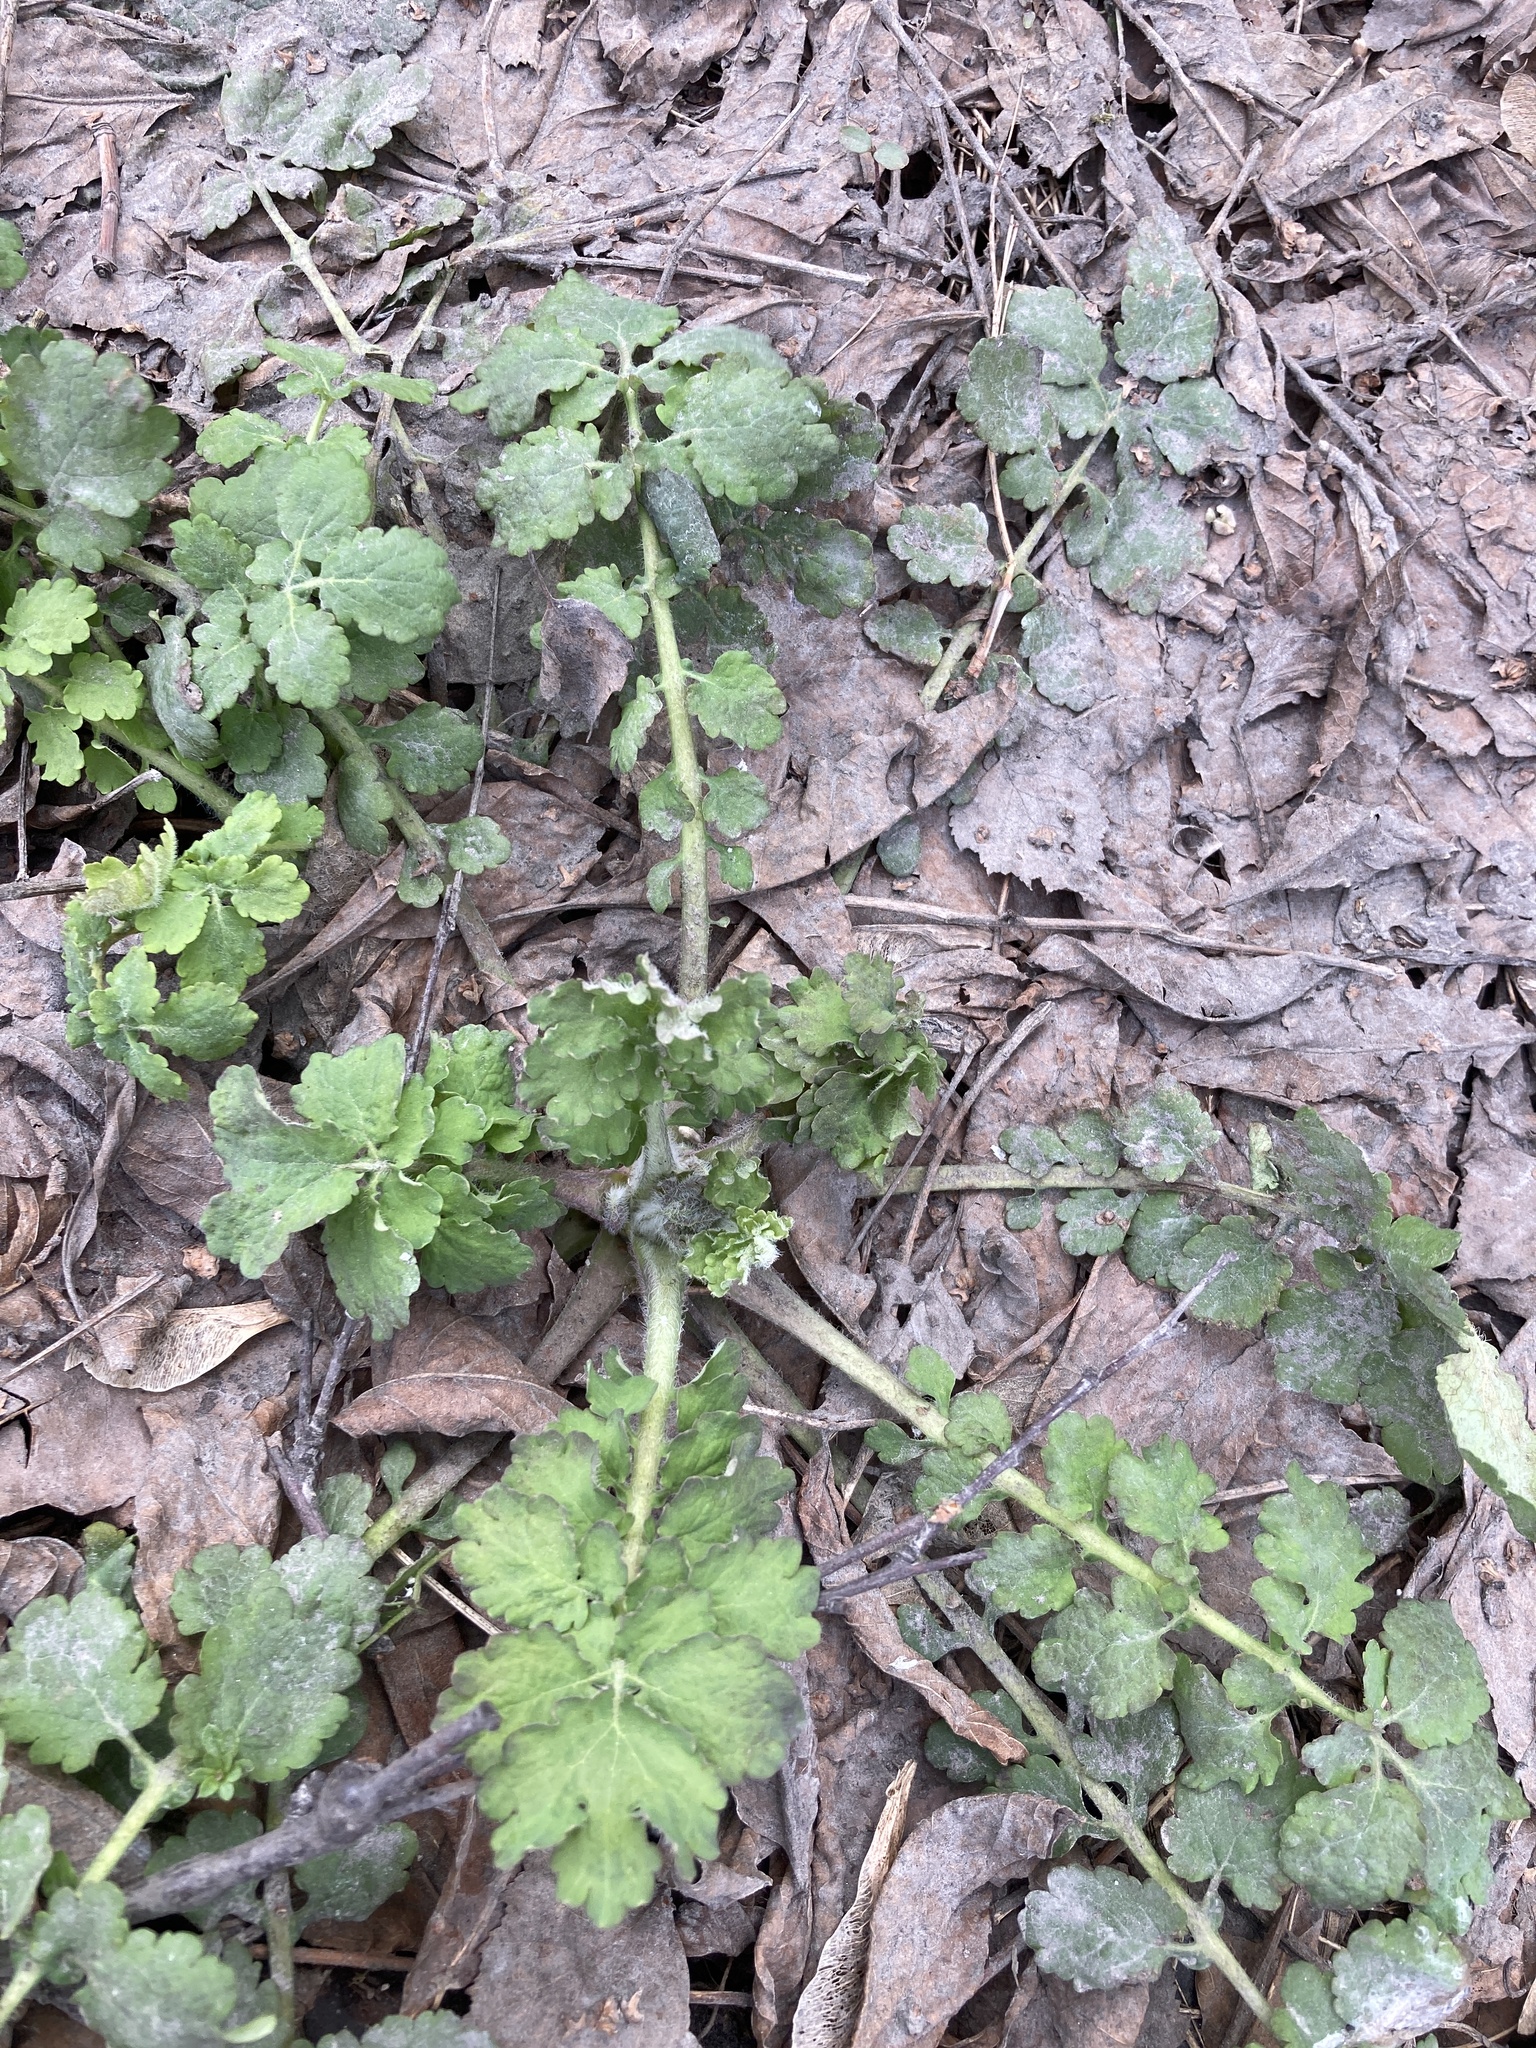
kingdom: Plantae
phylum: Tracheophyta
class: Magnoliopsida
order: Ranunculales
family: Papaveraceae
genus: Chelidonium
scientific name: Chelidonium majus
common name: Greater celandine
